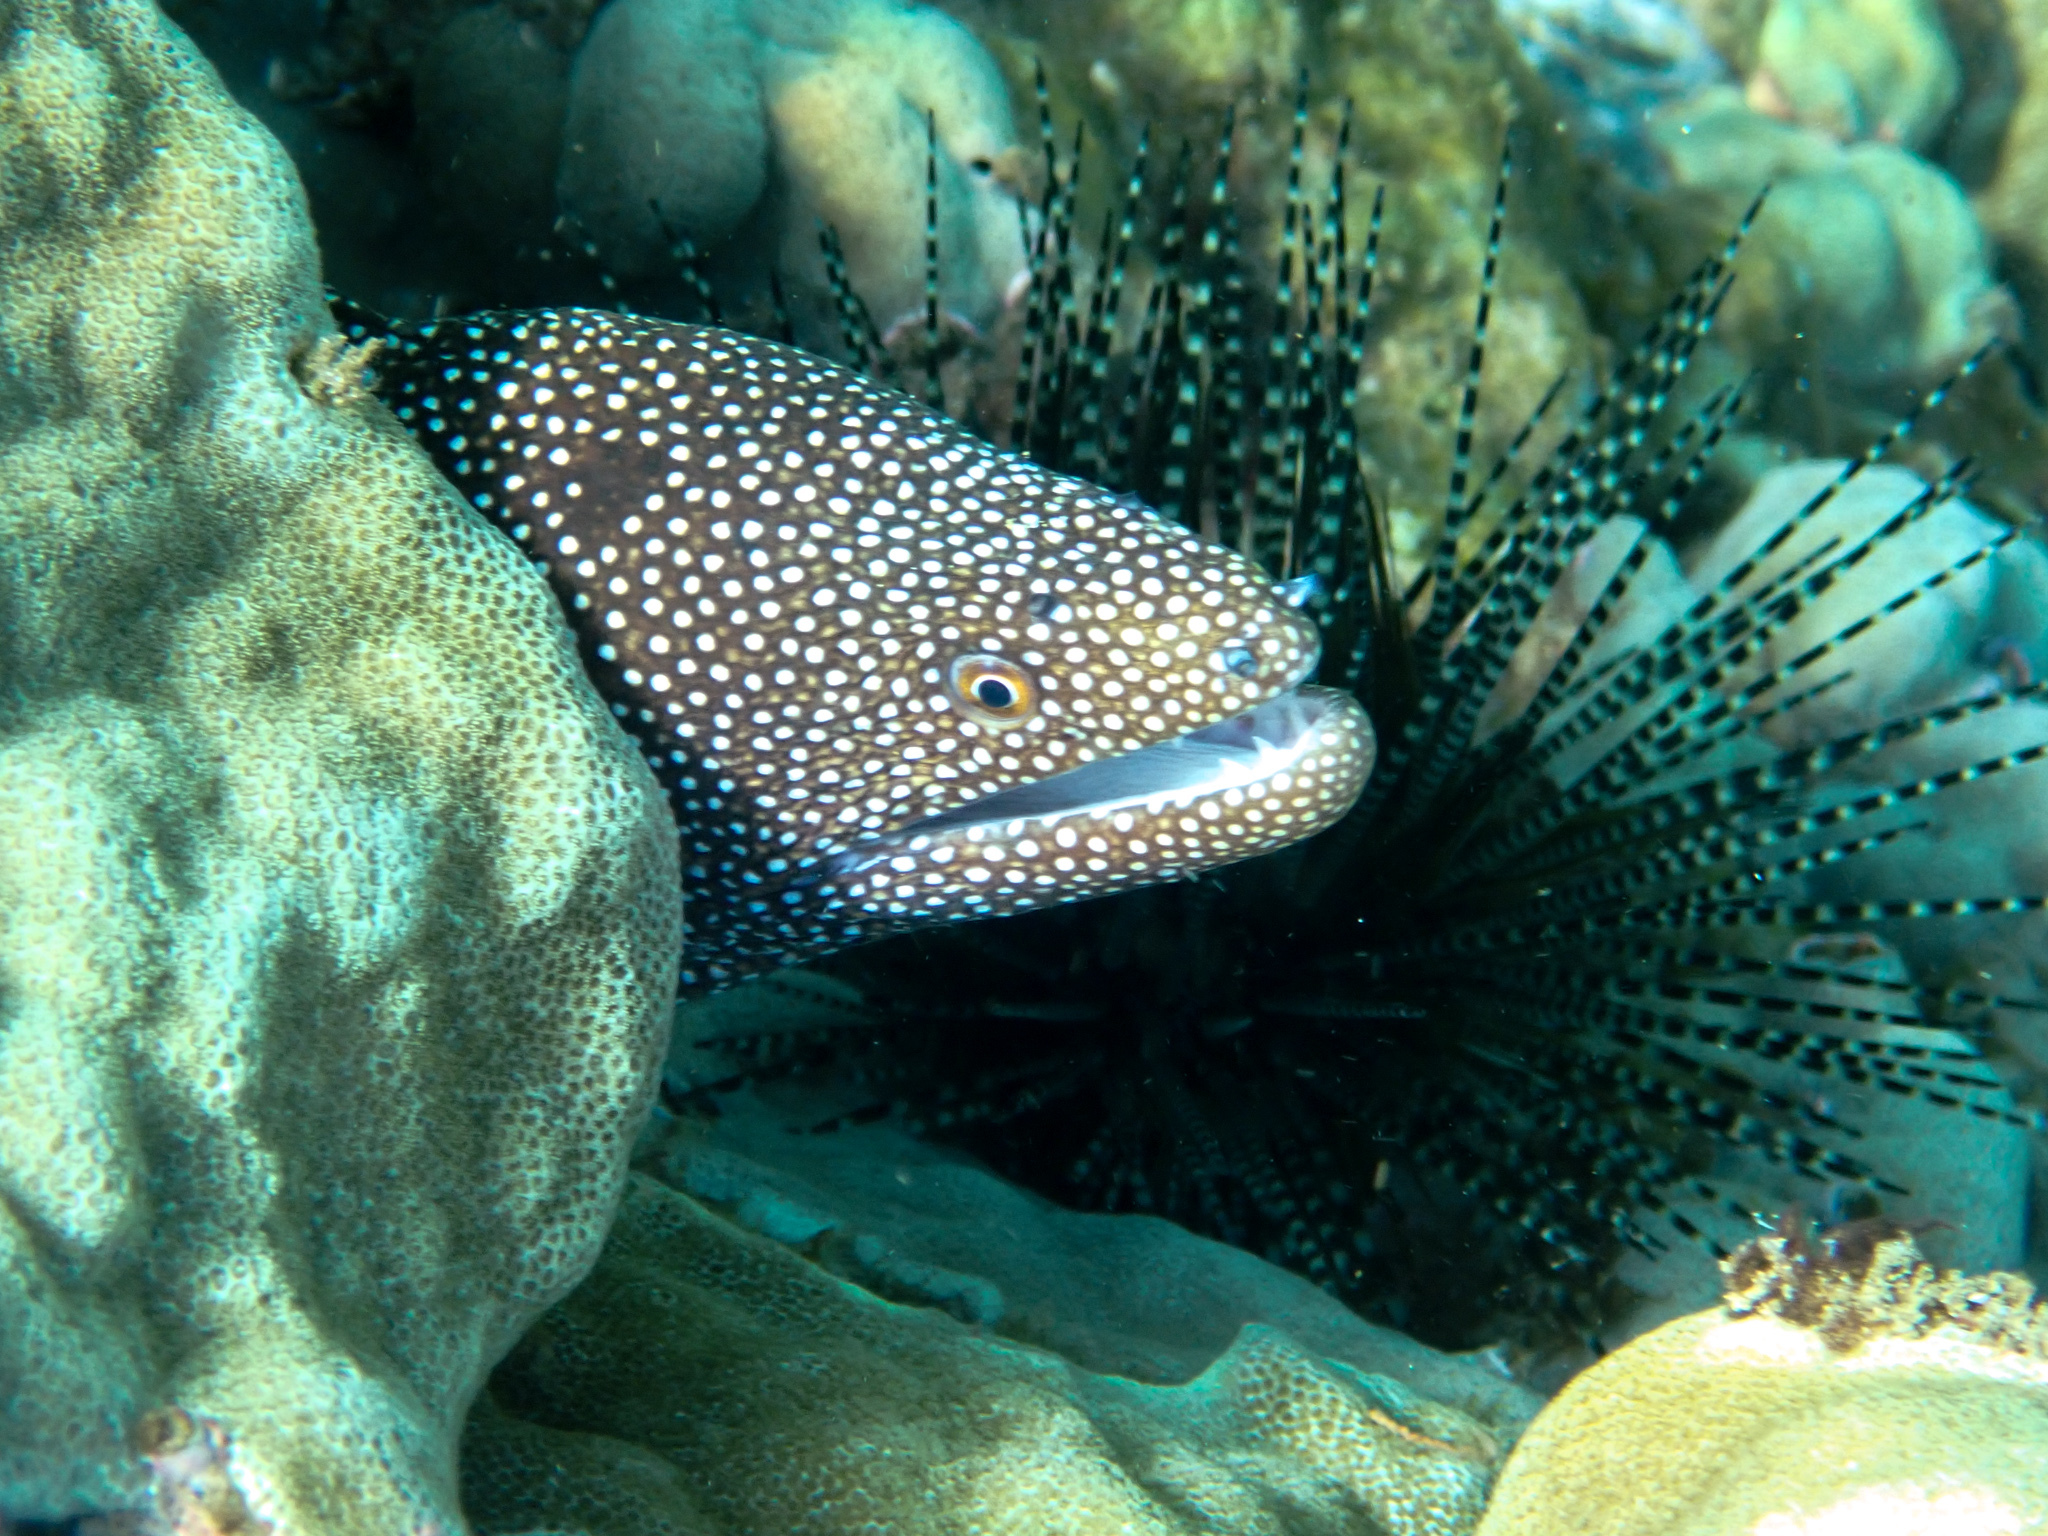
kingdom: Animalia
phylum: Chordata
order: Anguilliformes
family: Muraenidae
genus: Gymnothorax
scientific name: Gymnothorax meleagris
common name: Guineafowl moray
